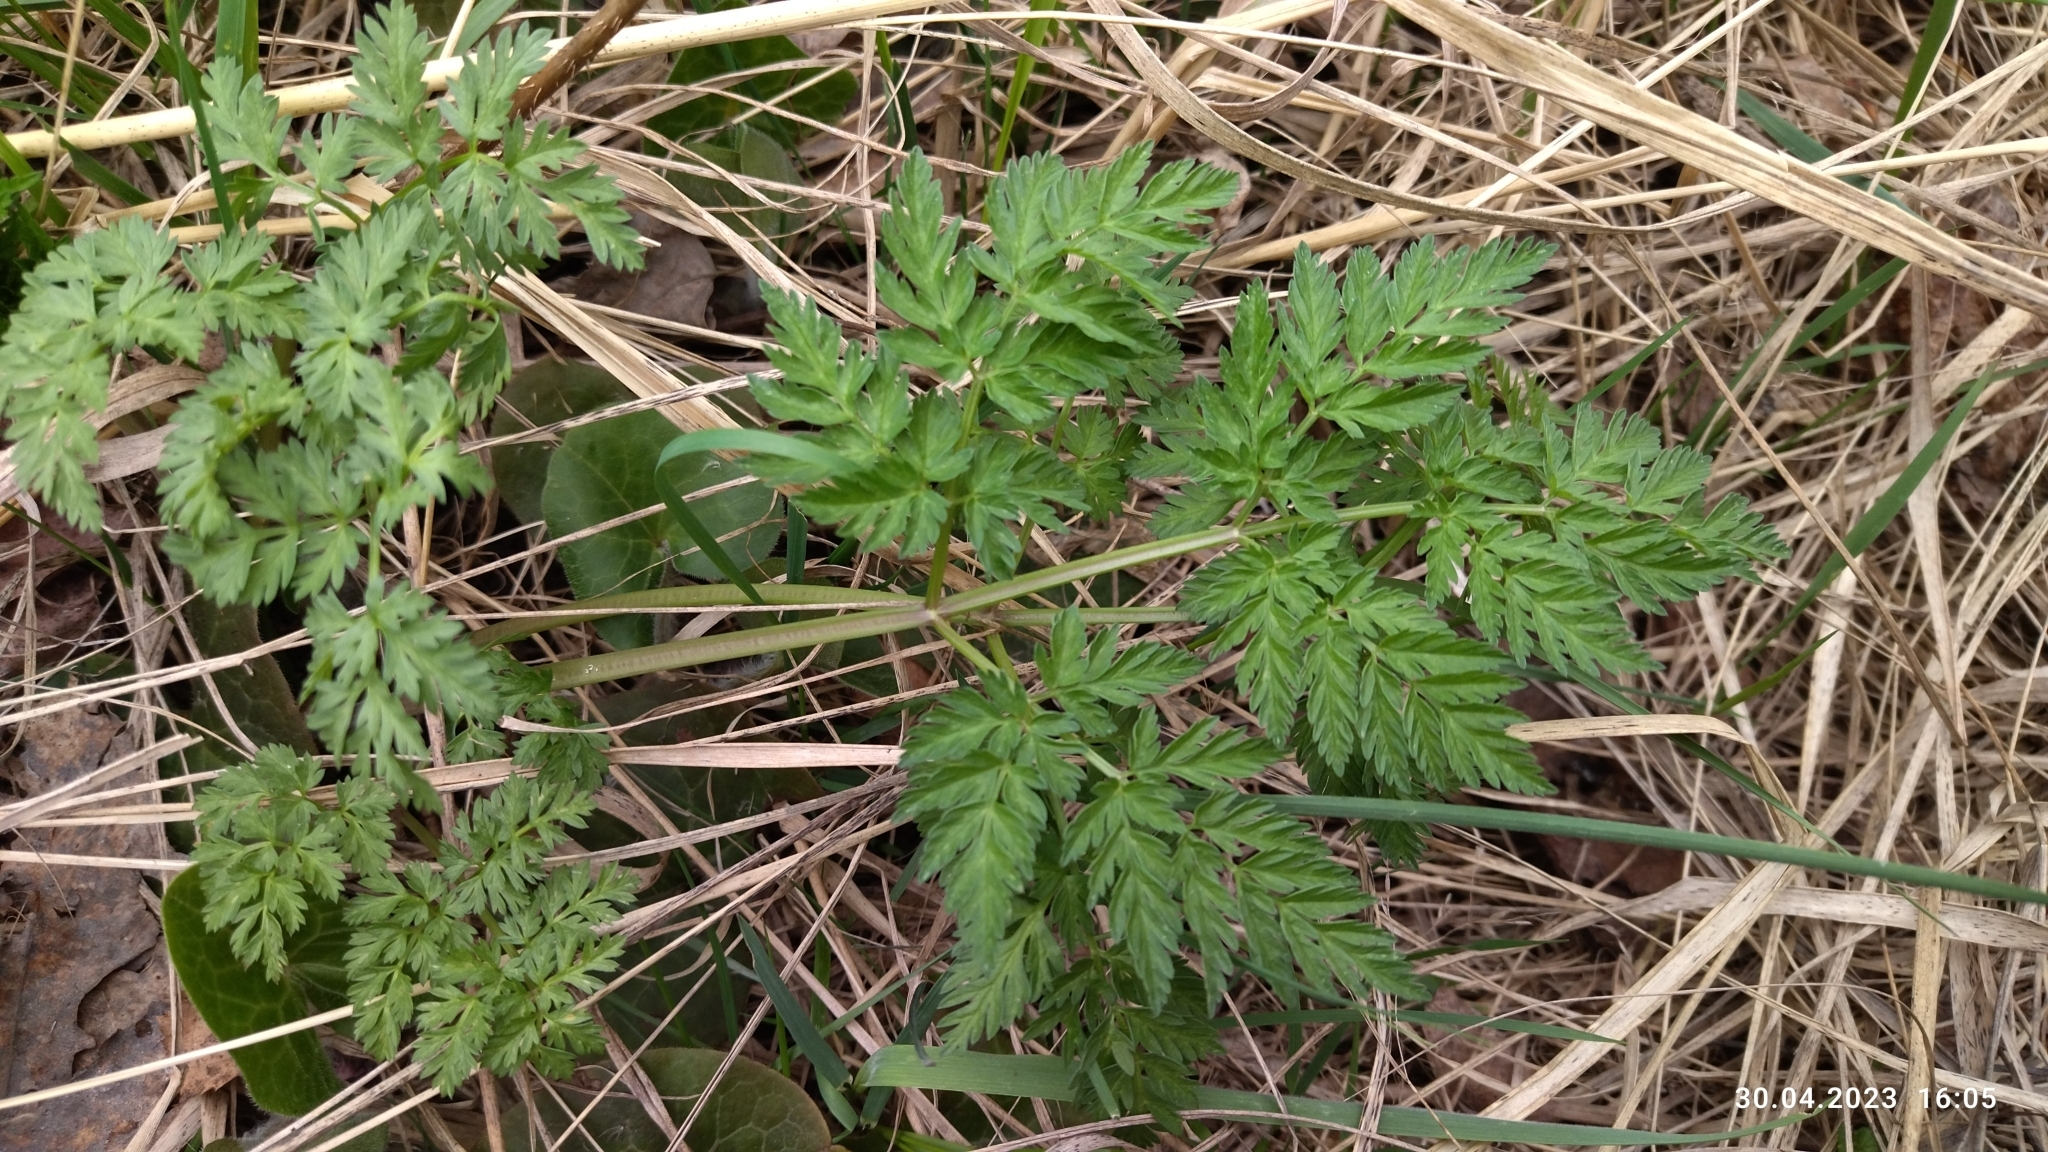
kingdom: Plantae
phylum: Tracheophyta
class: Magnoliopsida
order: Apiales
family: Apiaceae
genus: Anthriscus
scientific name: Anthriscus sylvestris
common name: Cow parsley
